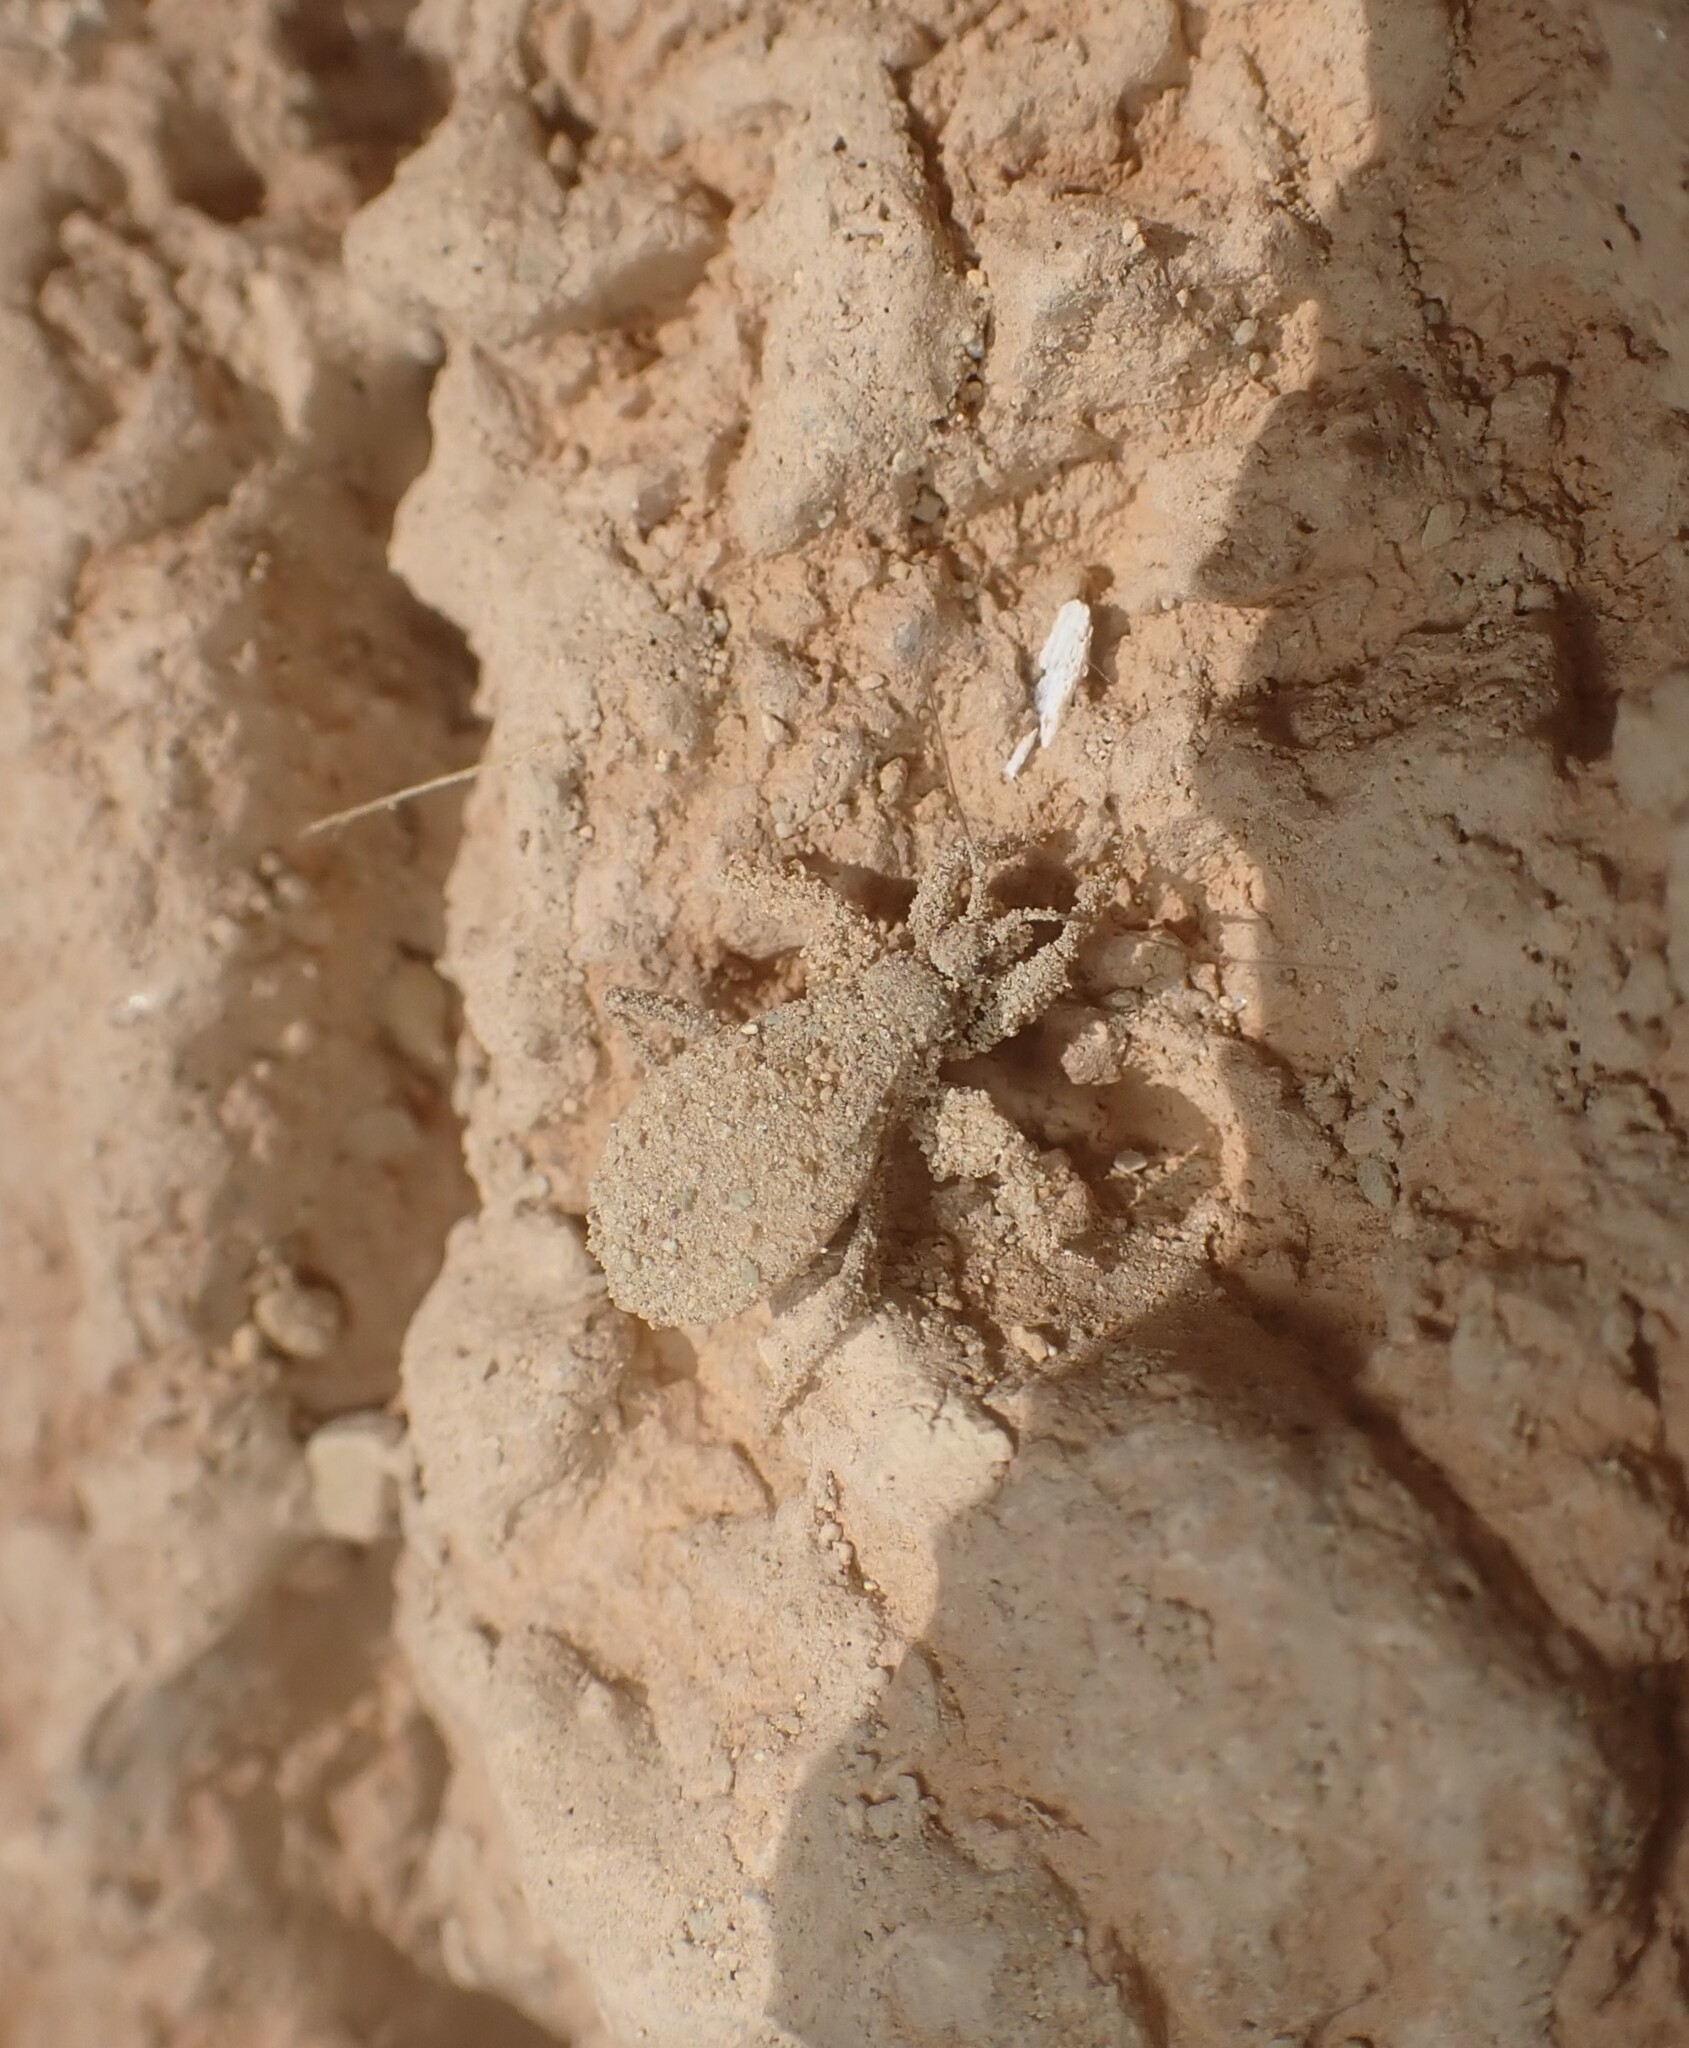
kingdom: Animalia
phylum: Arthropoda
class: Insecta
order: Hemiptera
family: Reduviidae
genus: Reduvius
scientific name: Reduvius personatus
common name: Masked hunter
